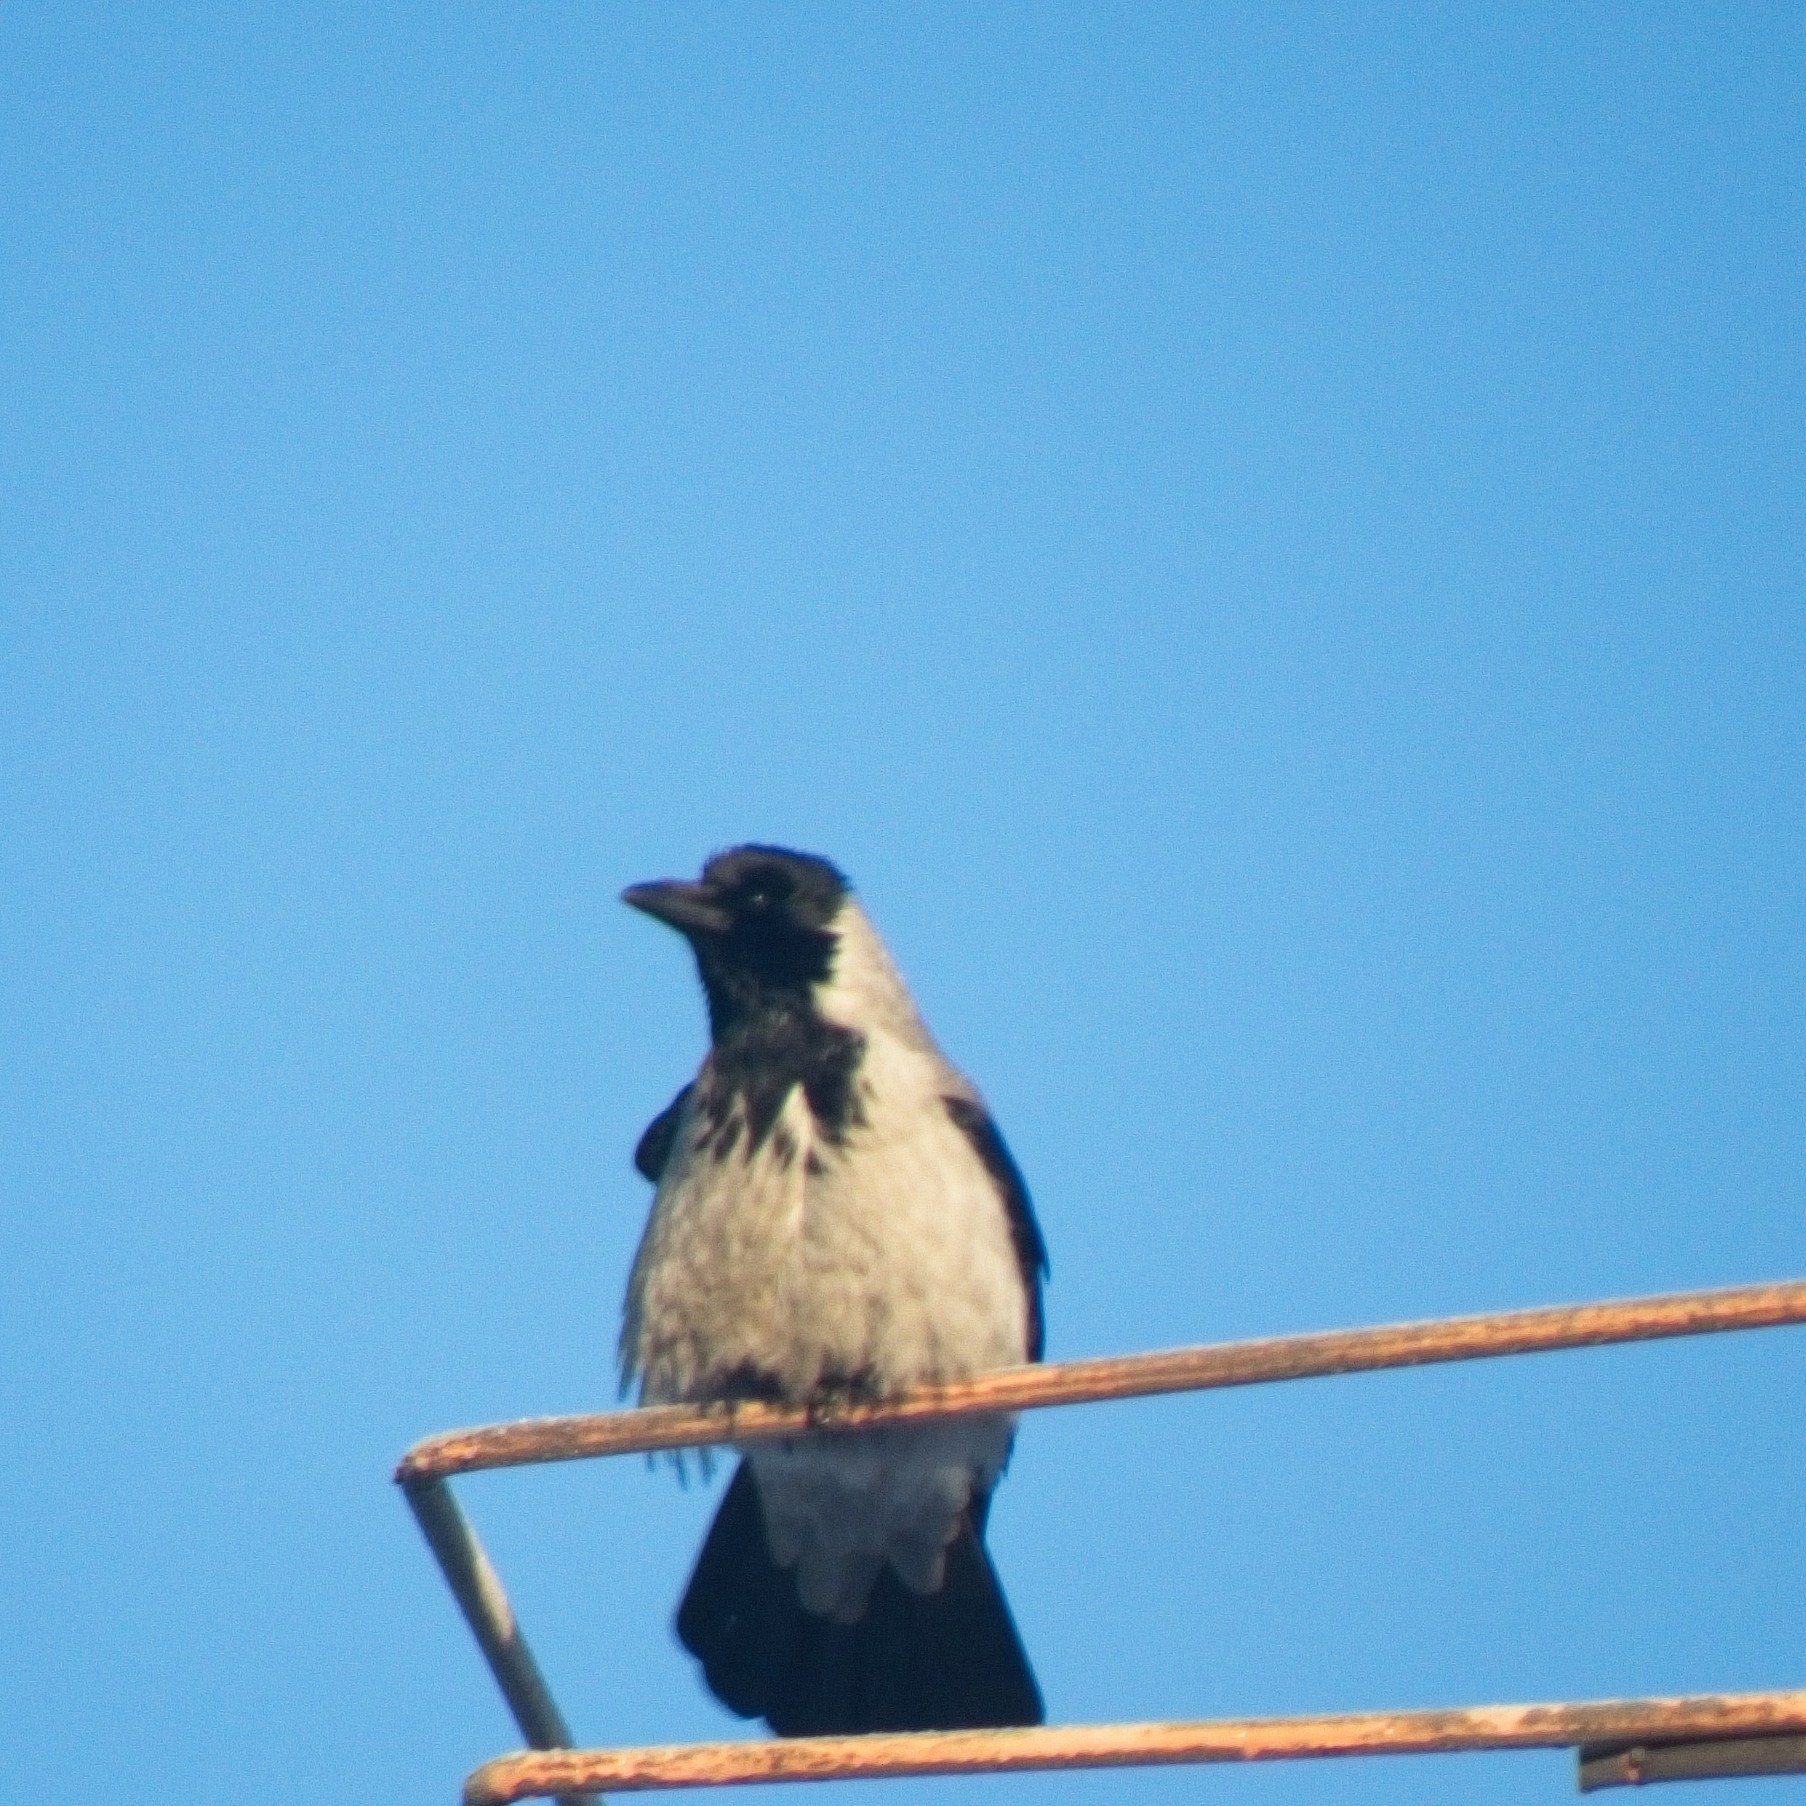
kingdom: Animalia
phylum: Chordata
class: Aves
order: Passeriformes
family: Corvidae
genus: Corvus
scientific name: Corvus cornix
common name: Hooded crow
